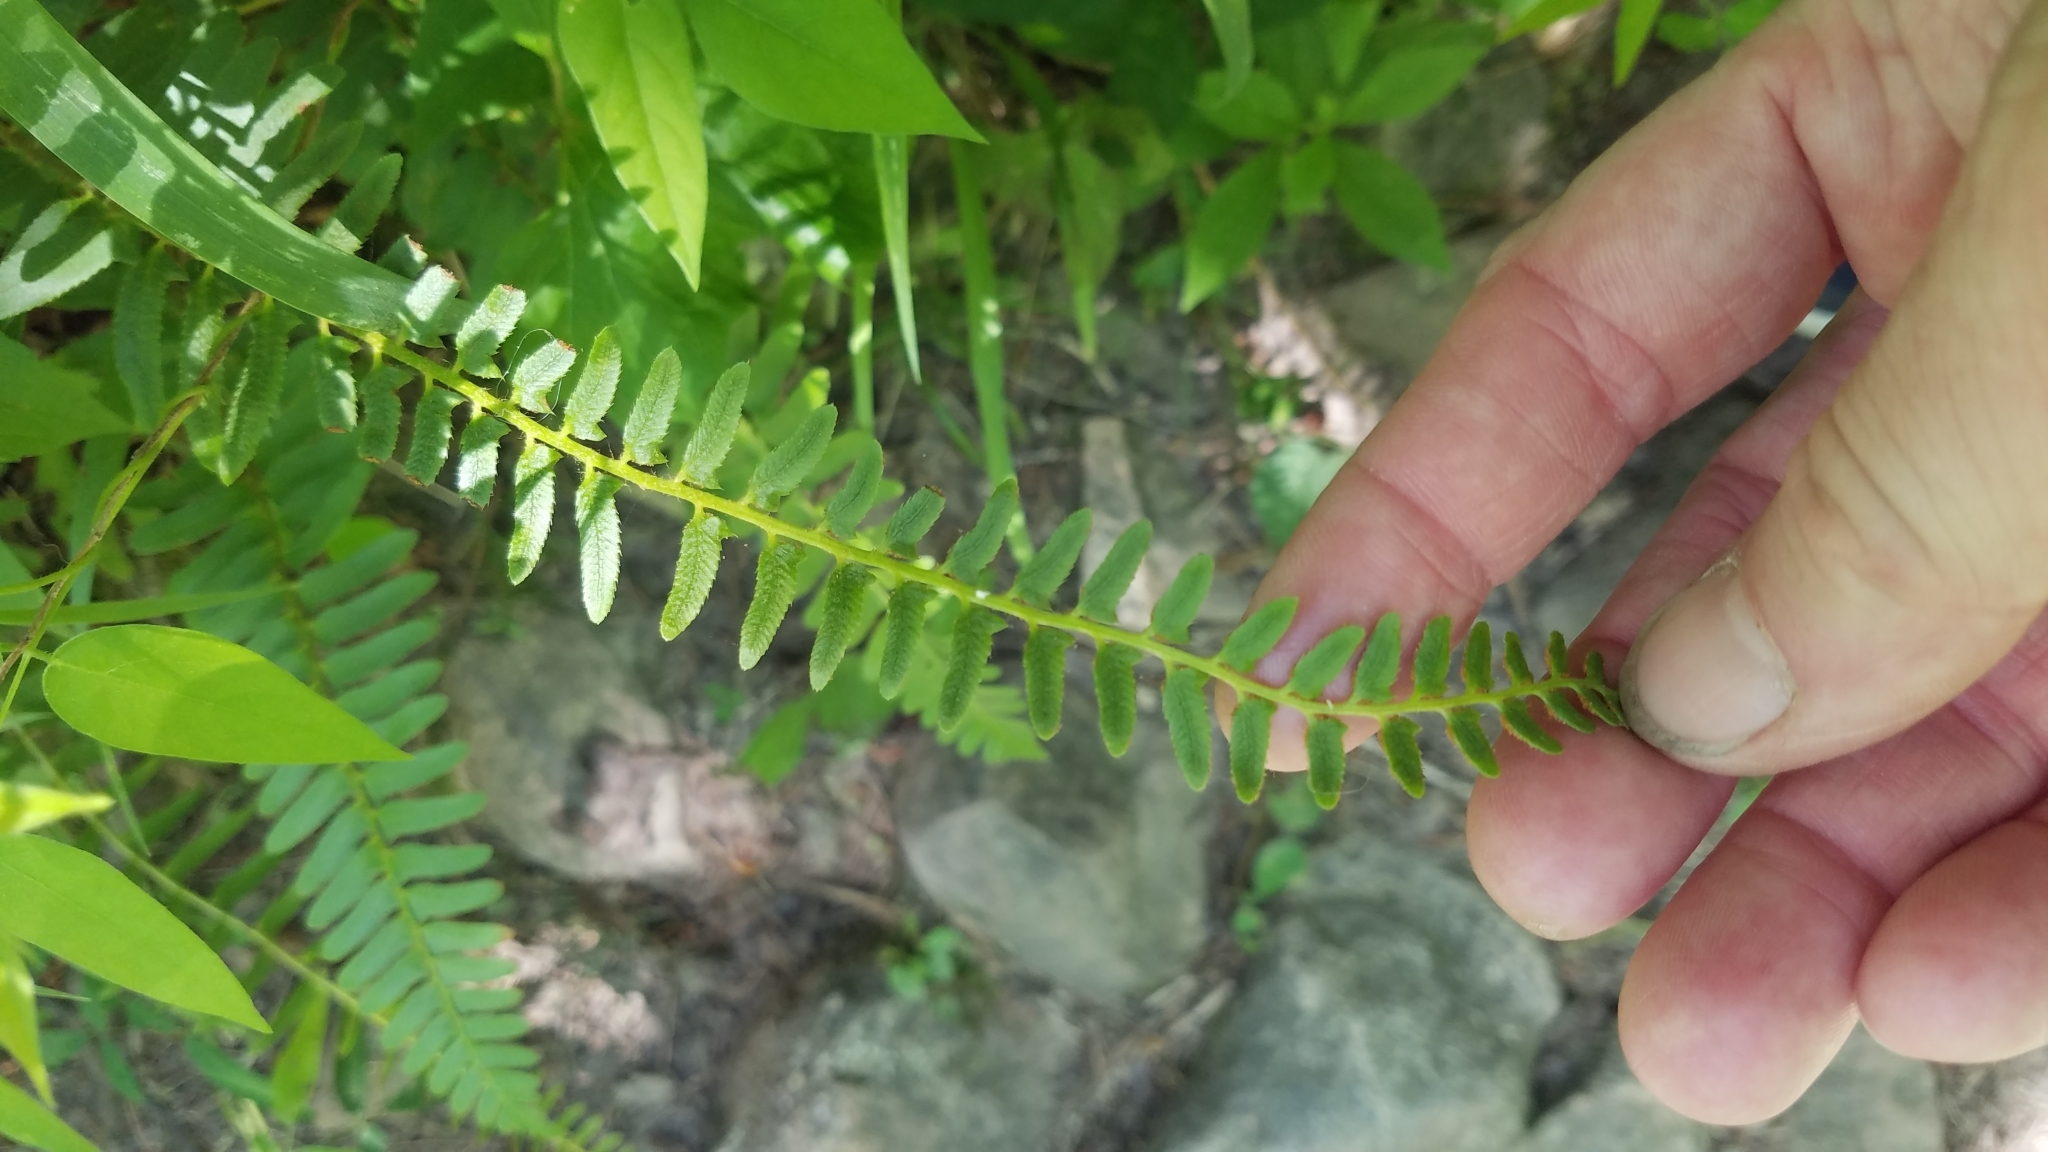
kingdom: Plantae
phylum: Tracheophyta
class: Polypodiopsida
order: Polypodiales
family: Dryopteridaceae
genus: Polystichum
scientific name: Polystichum acrostichoides
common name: Christmas fern
